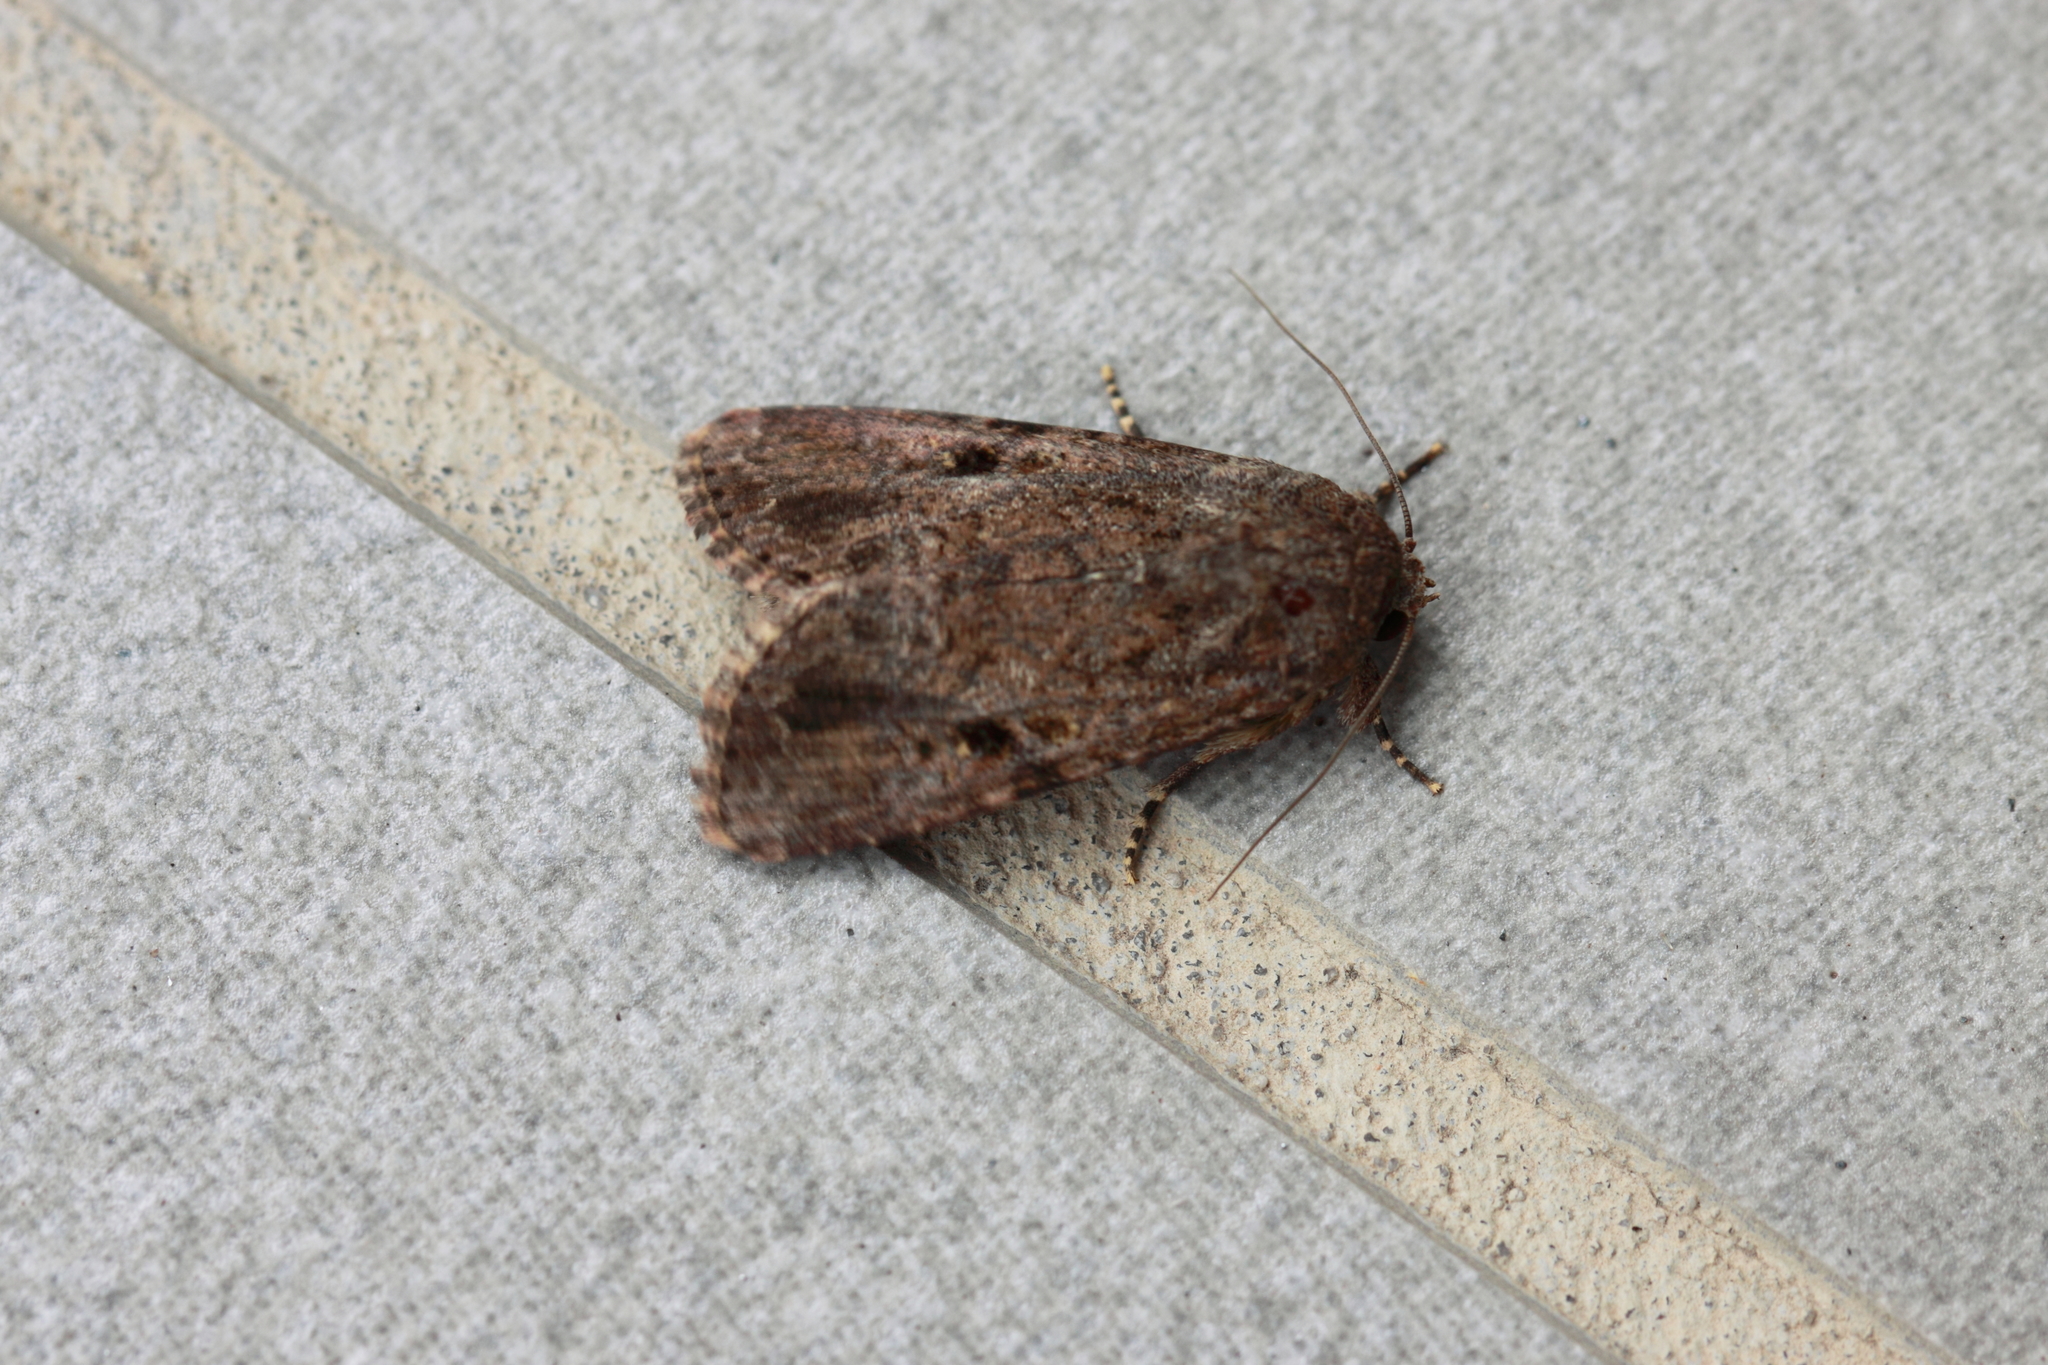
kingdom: Animalia
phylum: Arthropoda
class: Insecta
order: Lepidoptera
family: Noctuidae
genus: Spodoptera
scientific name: Spodoptera mauritia
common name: Lawn armyworm
